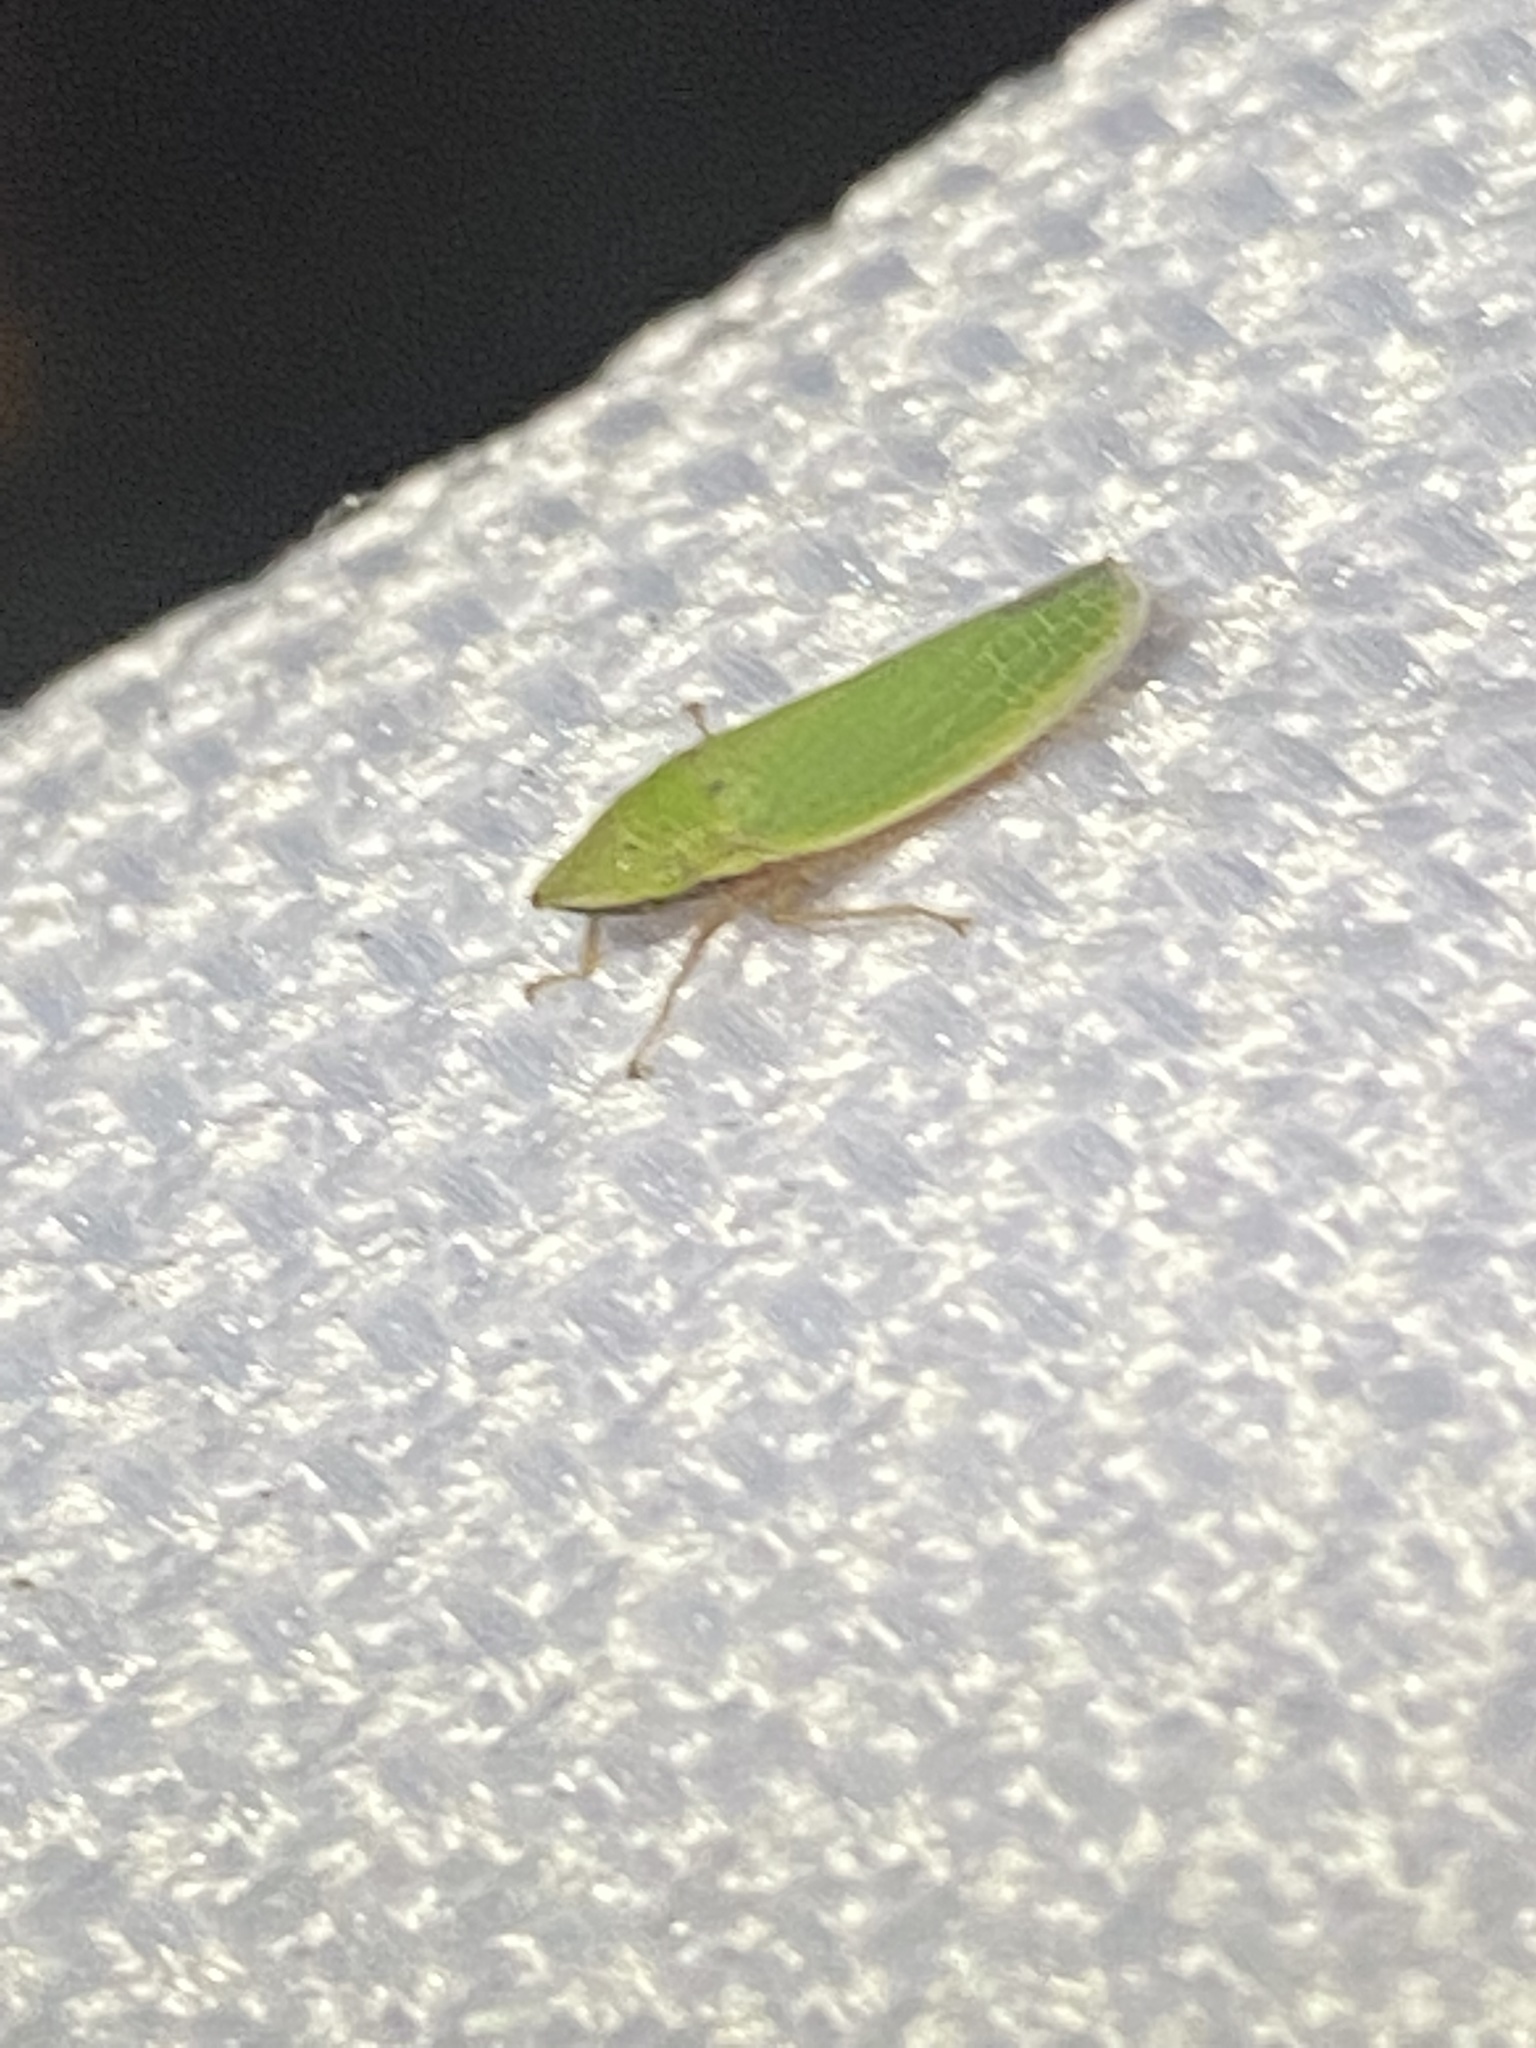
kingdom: Animalia
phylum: Arthropoda
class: Insecta
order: Hemiptera
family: Cicadellidae
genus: Draeculacephala
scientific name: Draeculacephala balli
